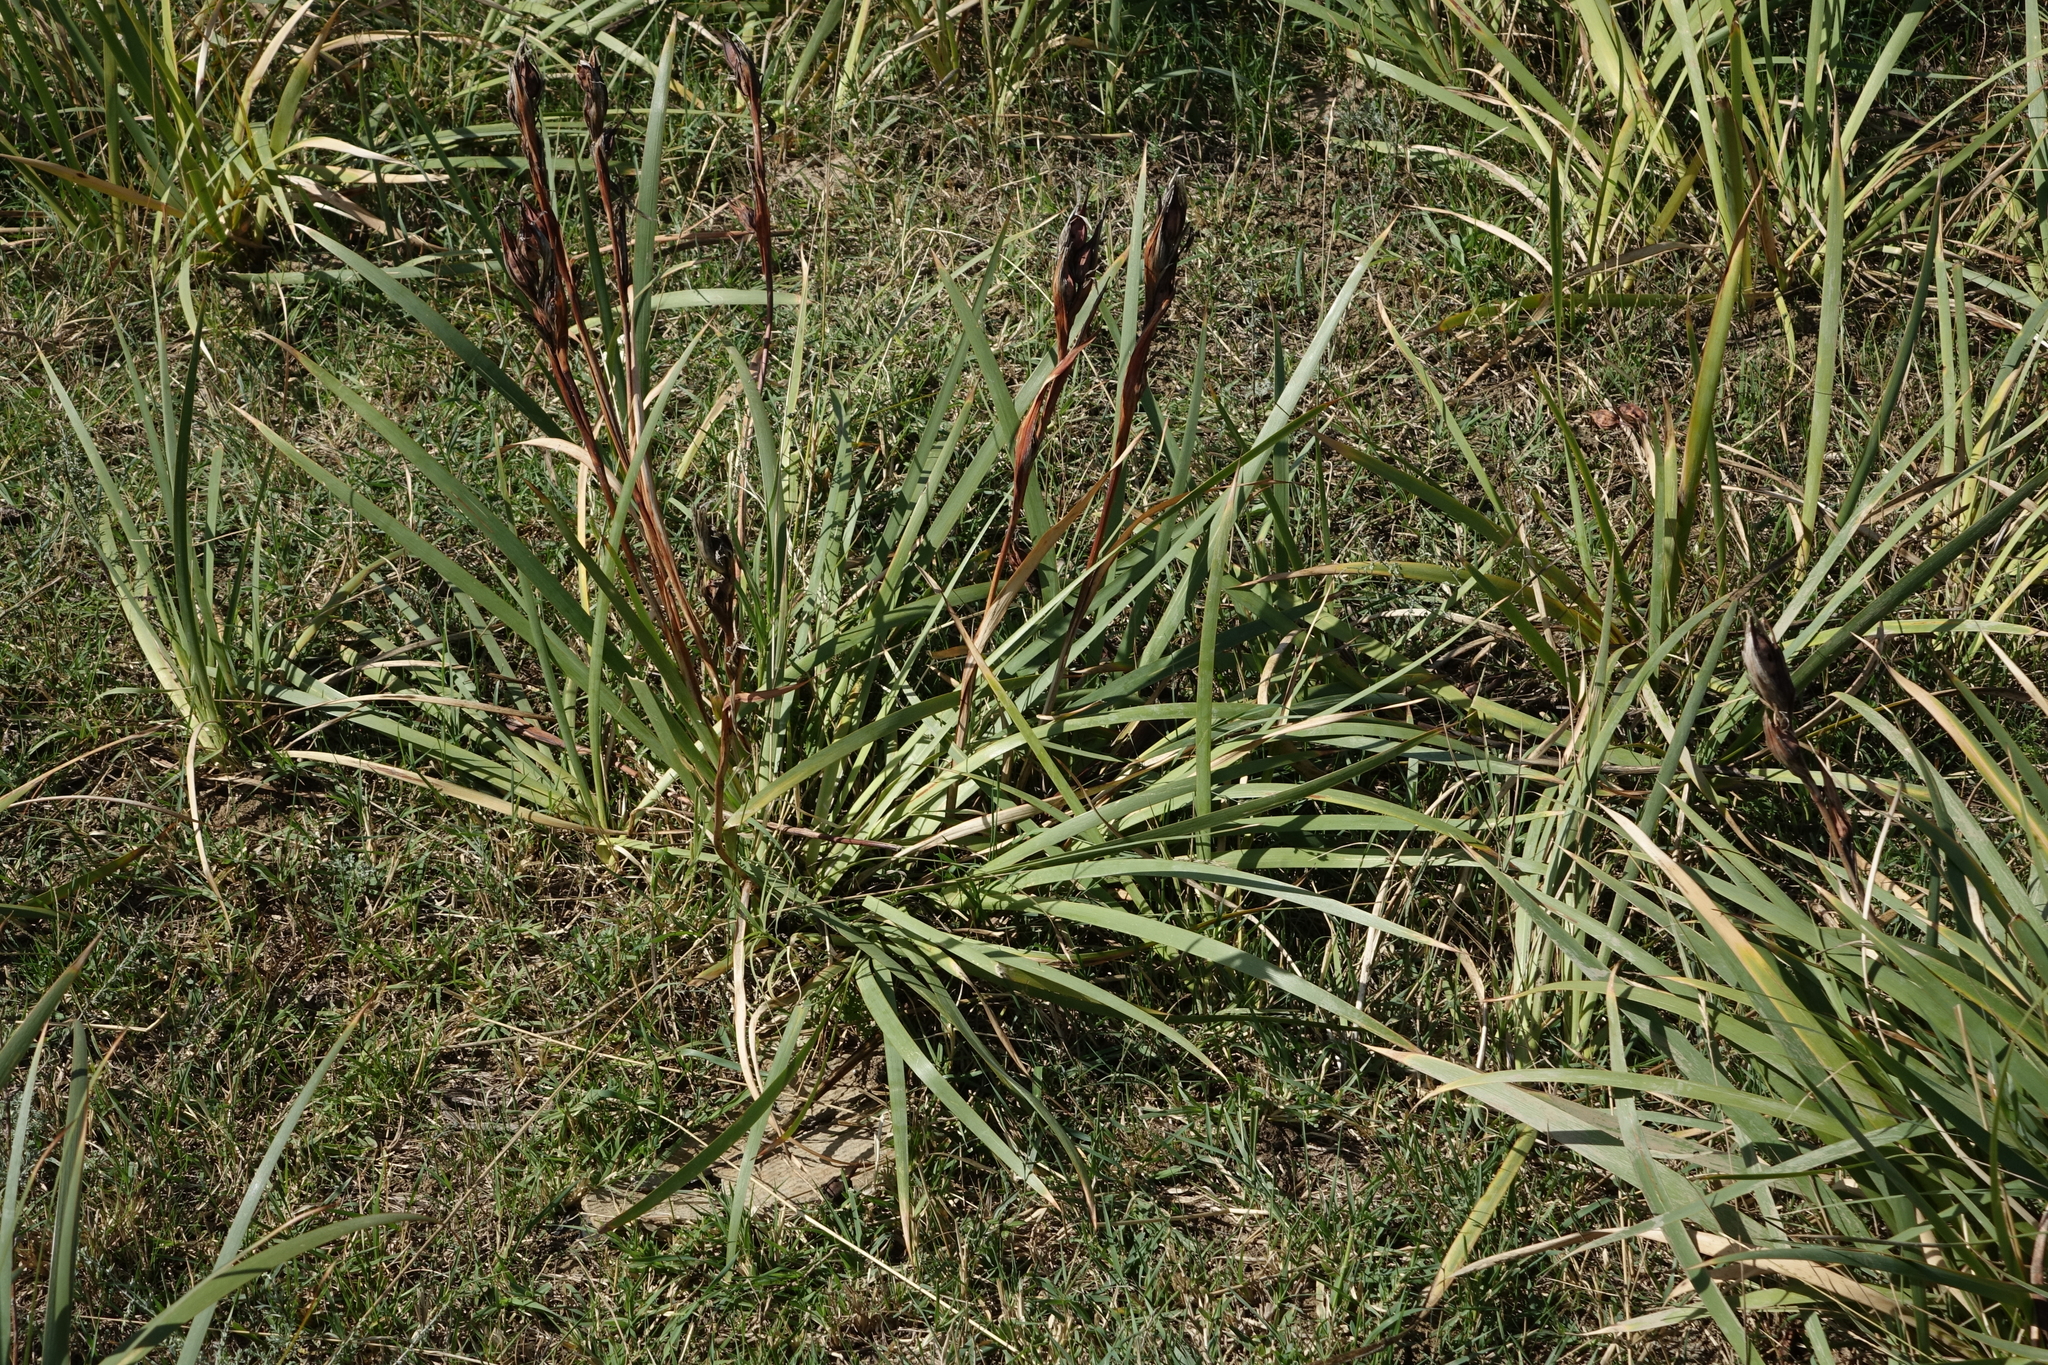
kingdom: Plantae
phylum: Tracheophyta
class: Liliopsida
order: Asparagales
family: Iridaceae
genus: Iris
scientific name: Iris pseudonotha
